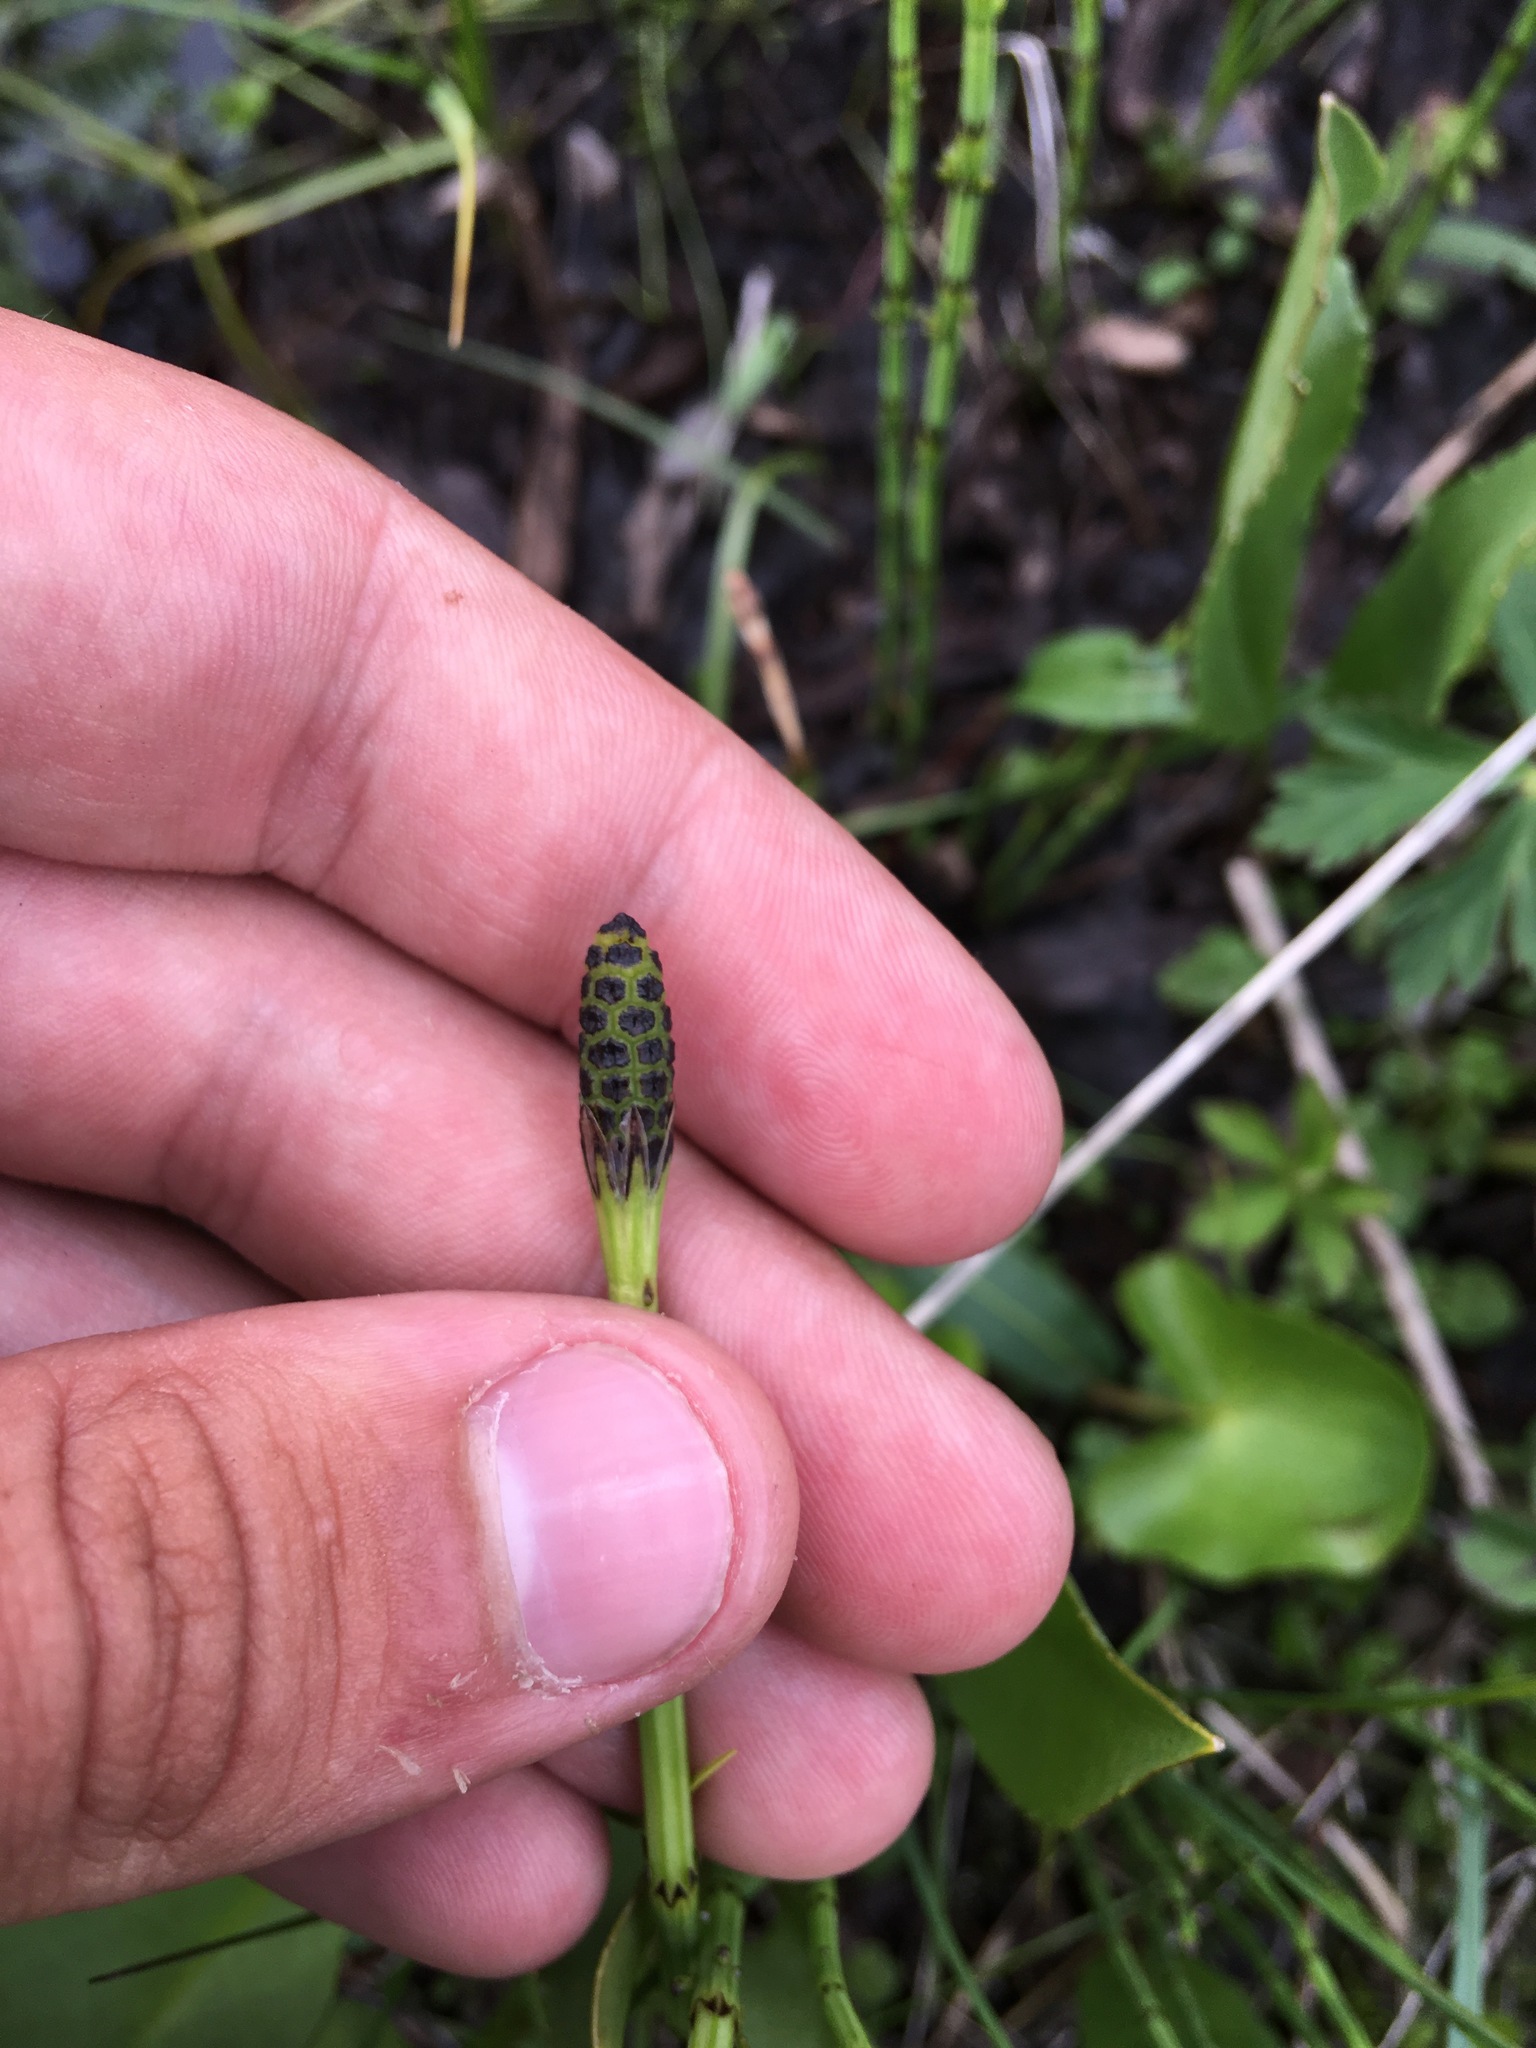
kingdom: Plantae
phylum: Tracheophyta
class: Polypodiopsida
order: Equisetales
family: Equisetaceae
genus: Equisetum
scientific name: Equisetum palustre
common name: Marsh horsetail
